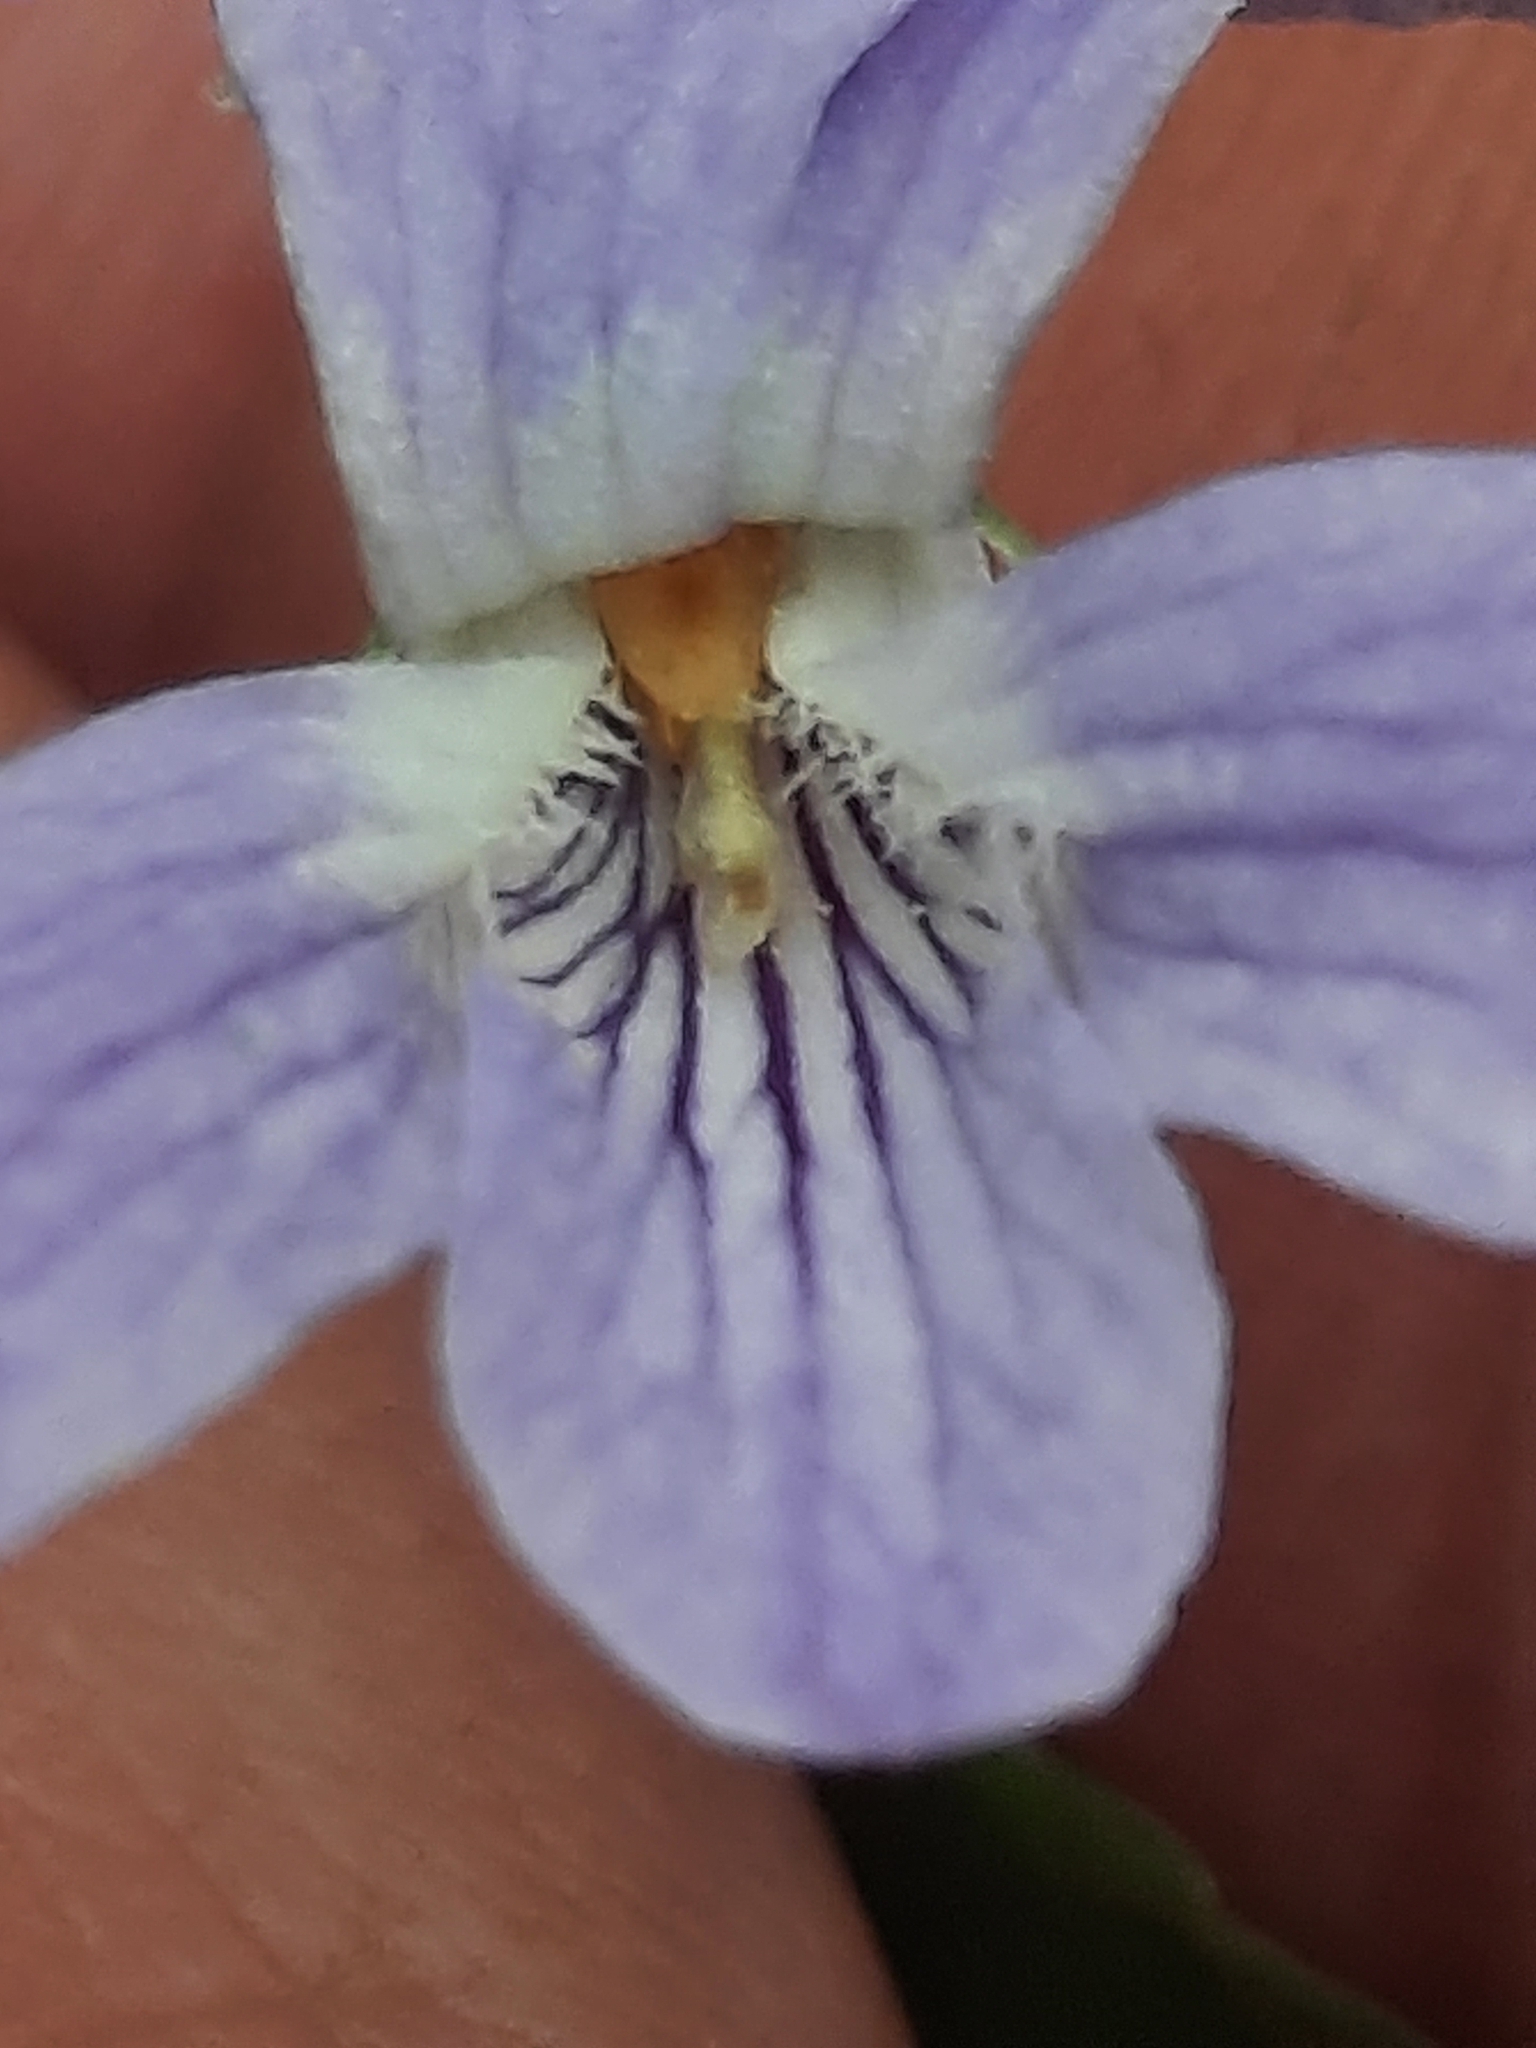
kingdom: Plantae
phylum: Tracheophyta
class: Magnoliopsida
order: Malpighiales
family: Violaceae
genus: Viola
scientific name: Viola labradorica
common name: Labrador violet
